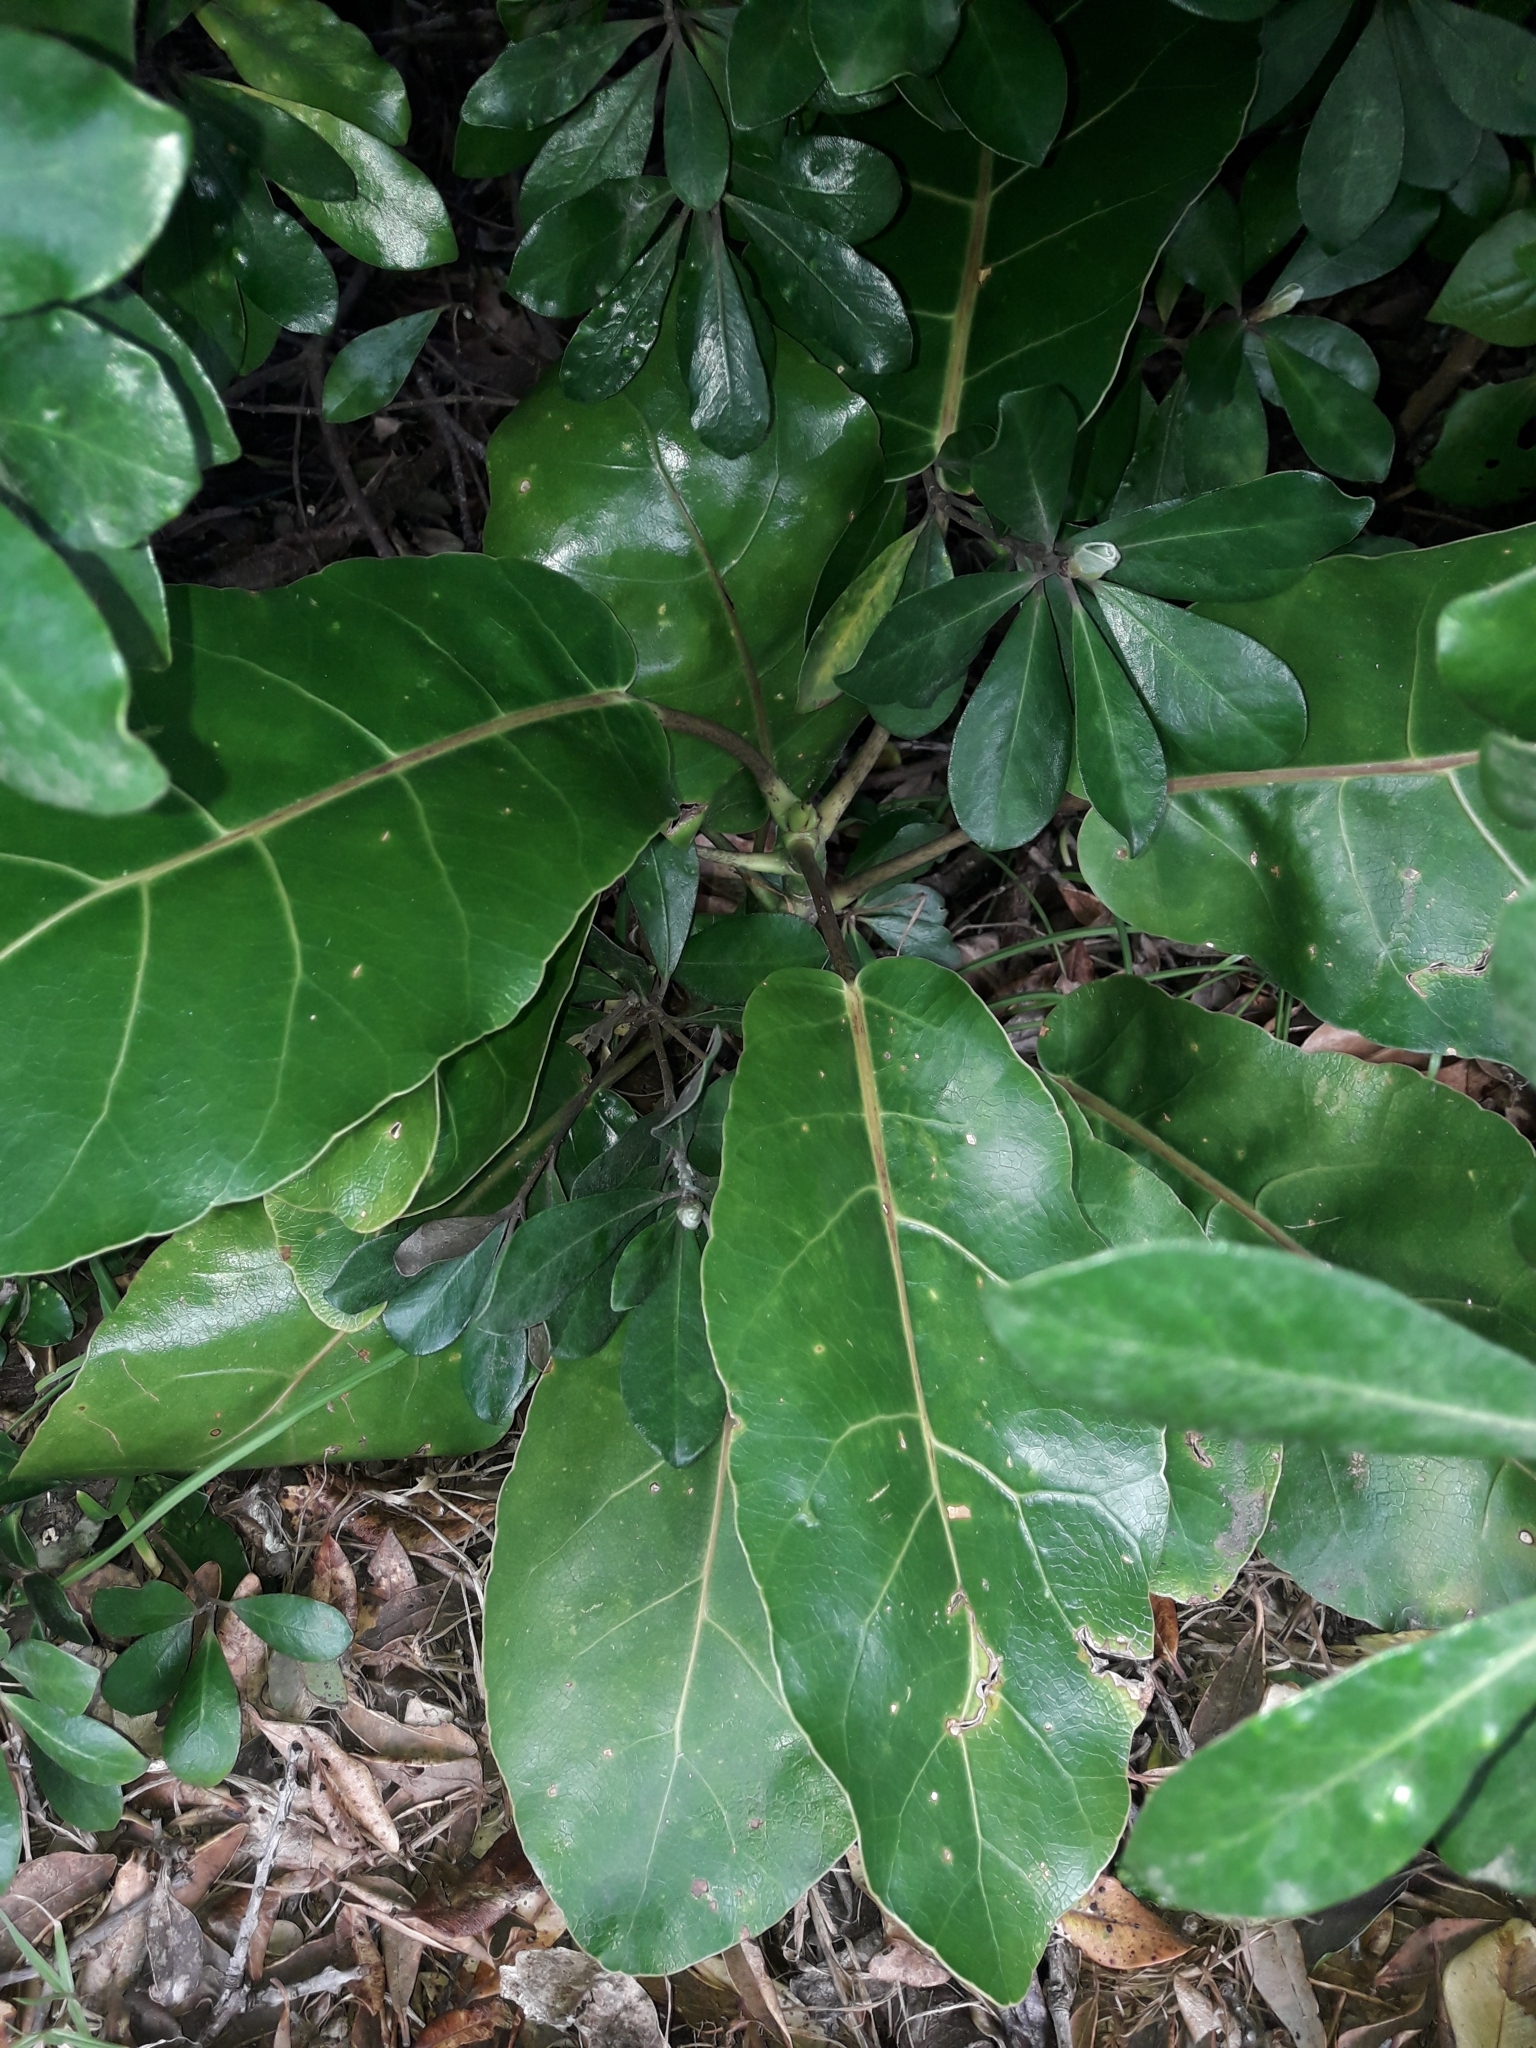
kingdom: Plantae
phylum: Tracheophyta
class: Magnoliopsida
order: Apiales
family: Araliaceae
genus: Meryta
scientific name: Meryta sinclairii
